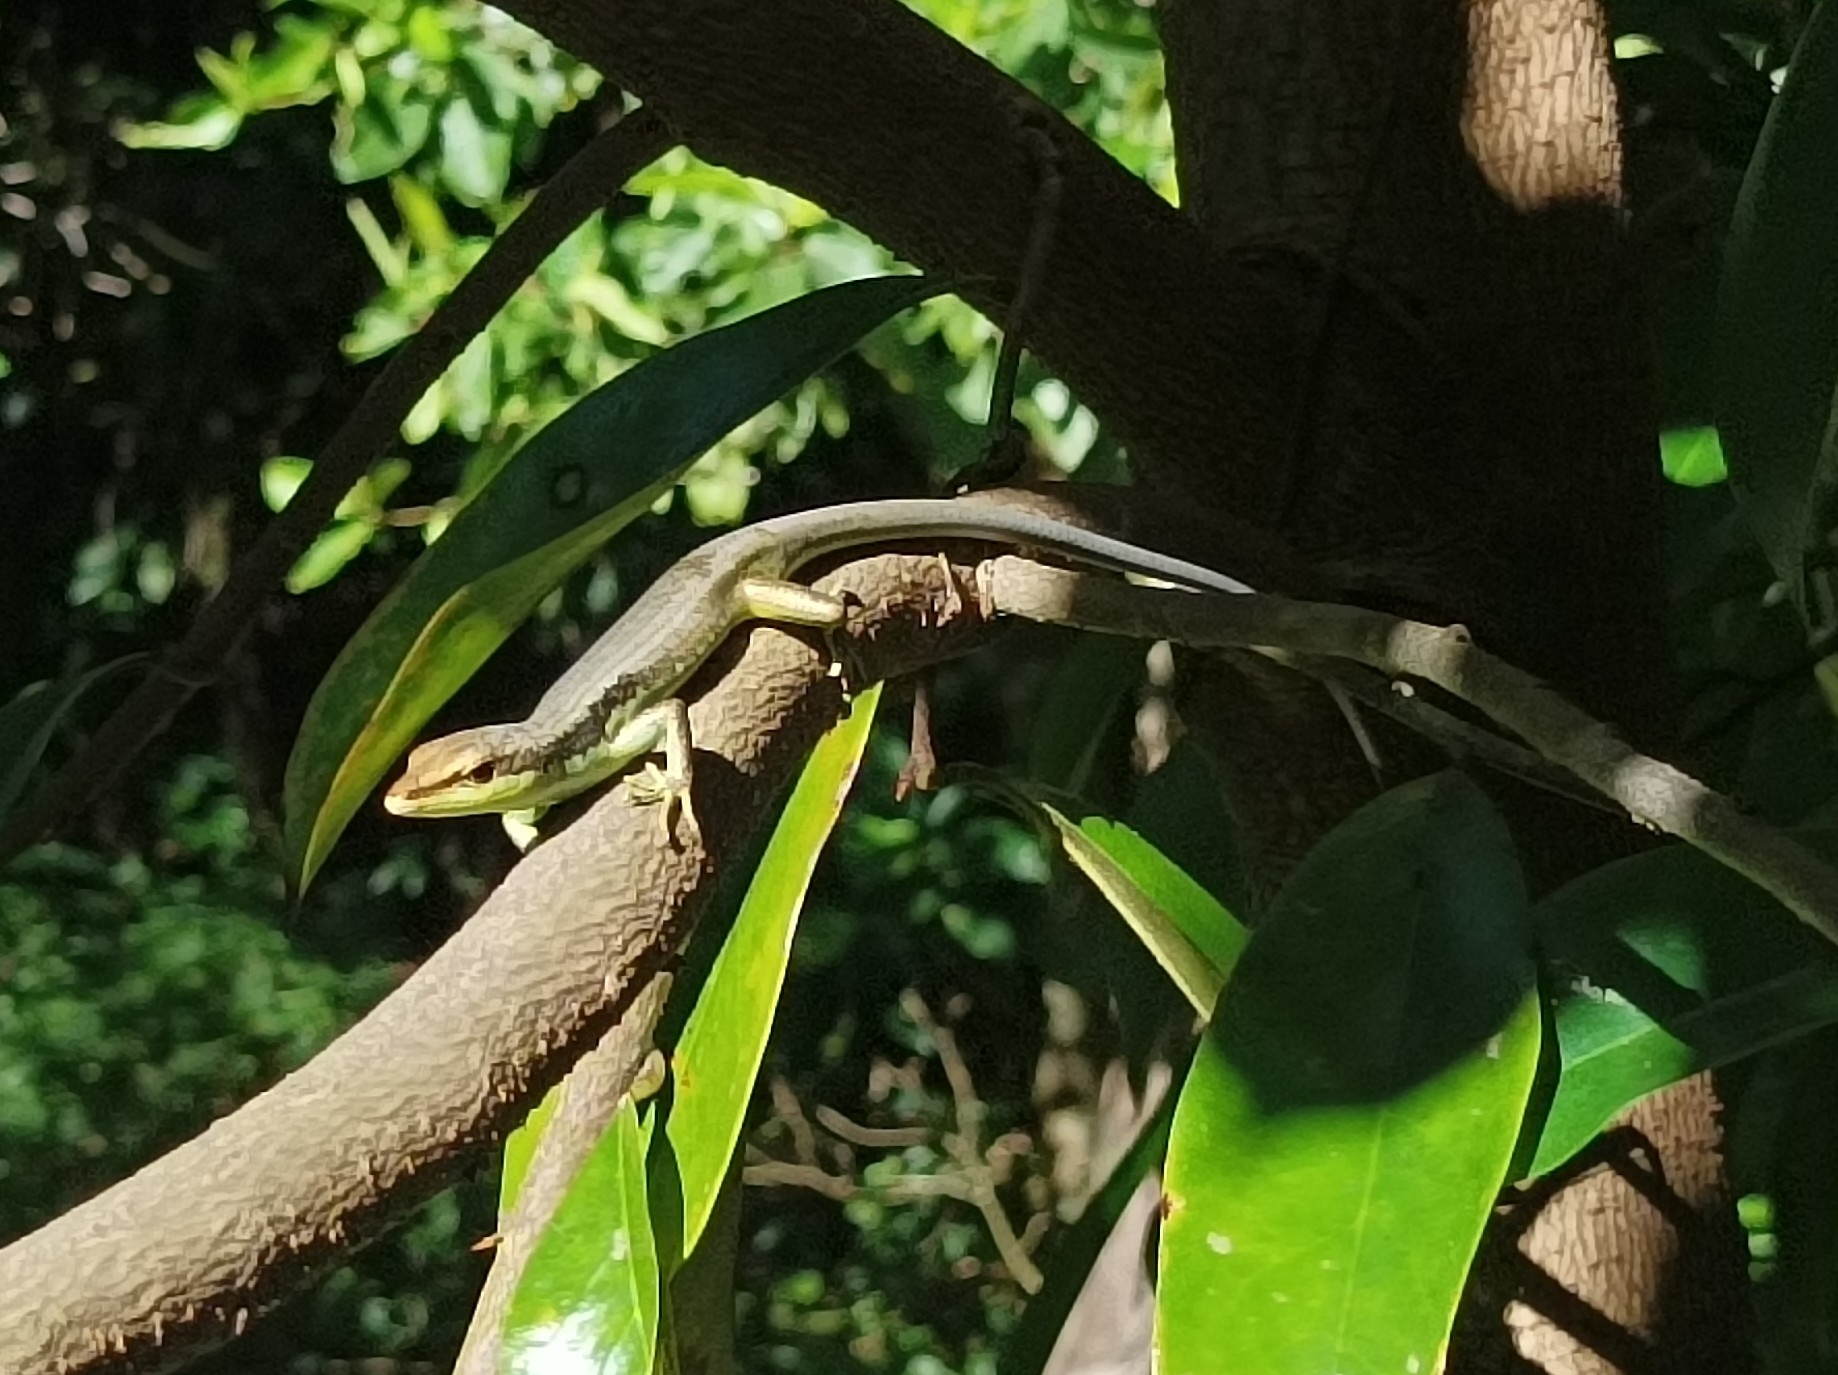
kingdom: Animalia
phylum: Chordata
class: Squamata
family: Scincidae
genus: Emoia
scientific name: Emoia cyanogaster
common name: Teal emo skink
